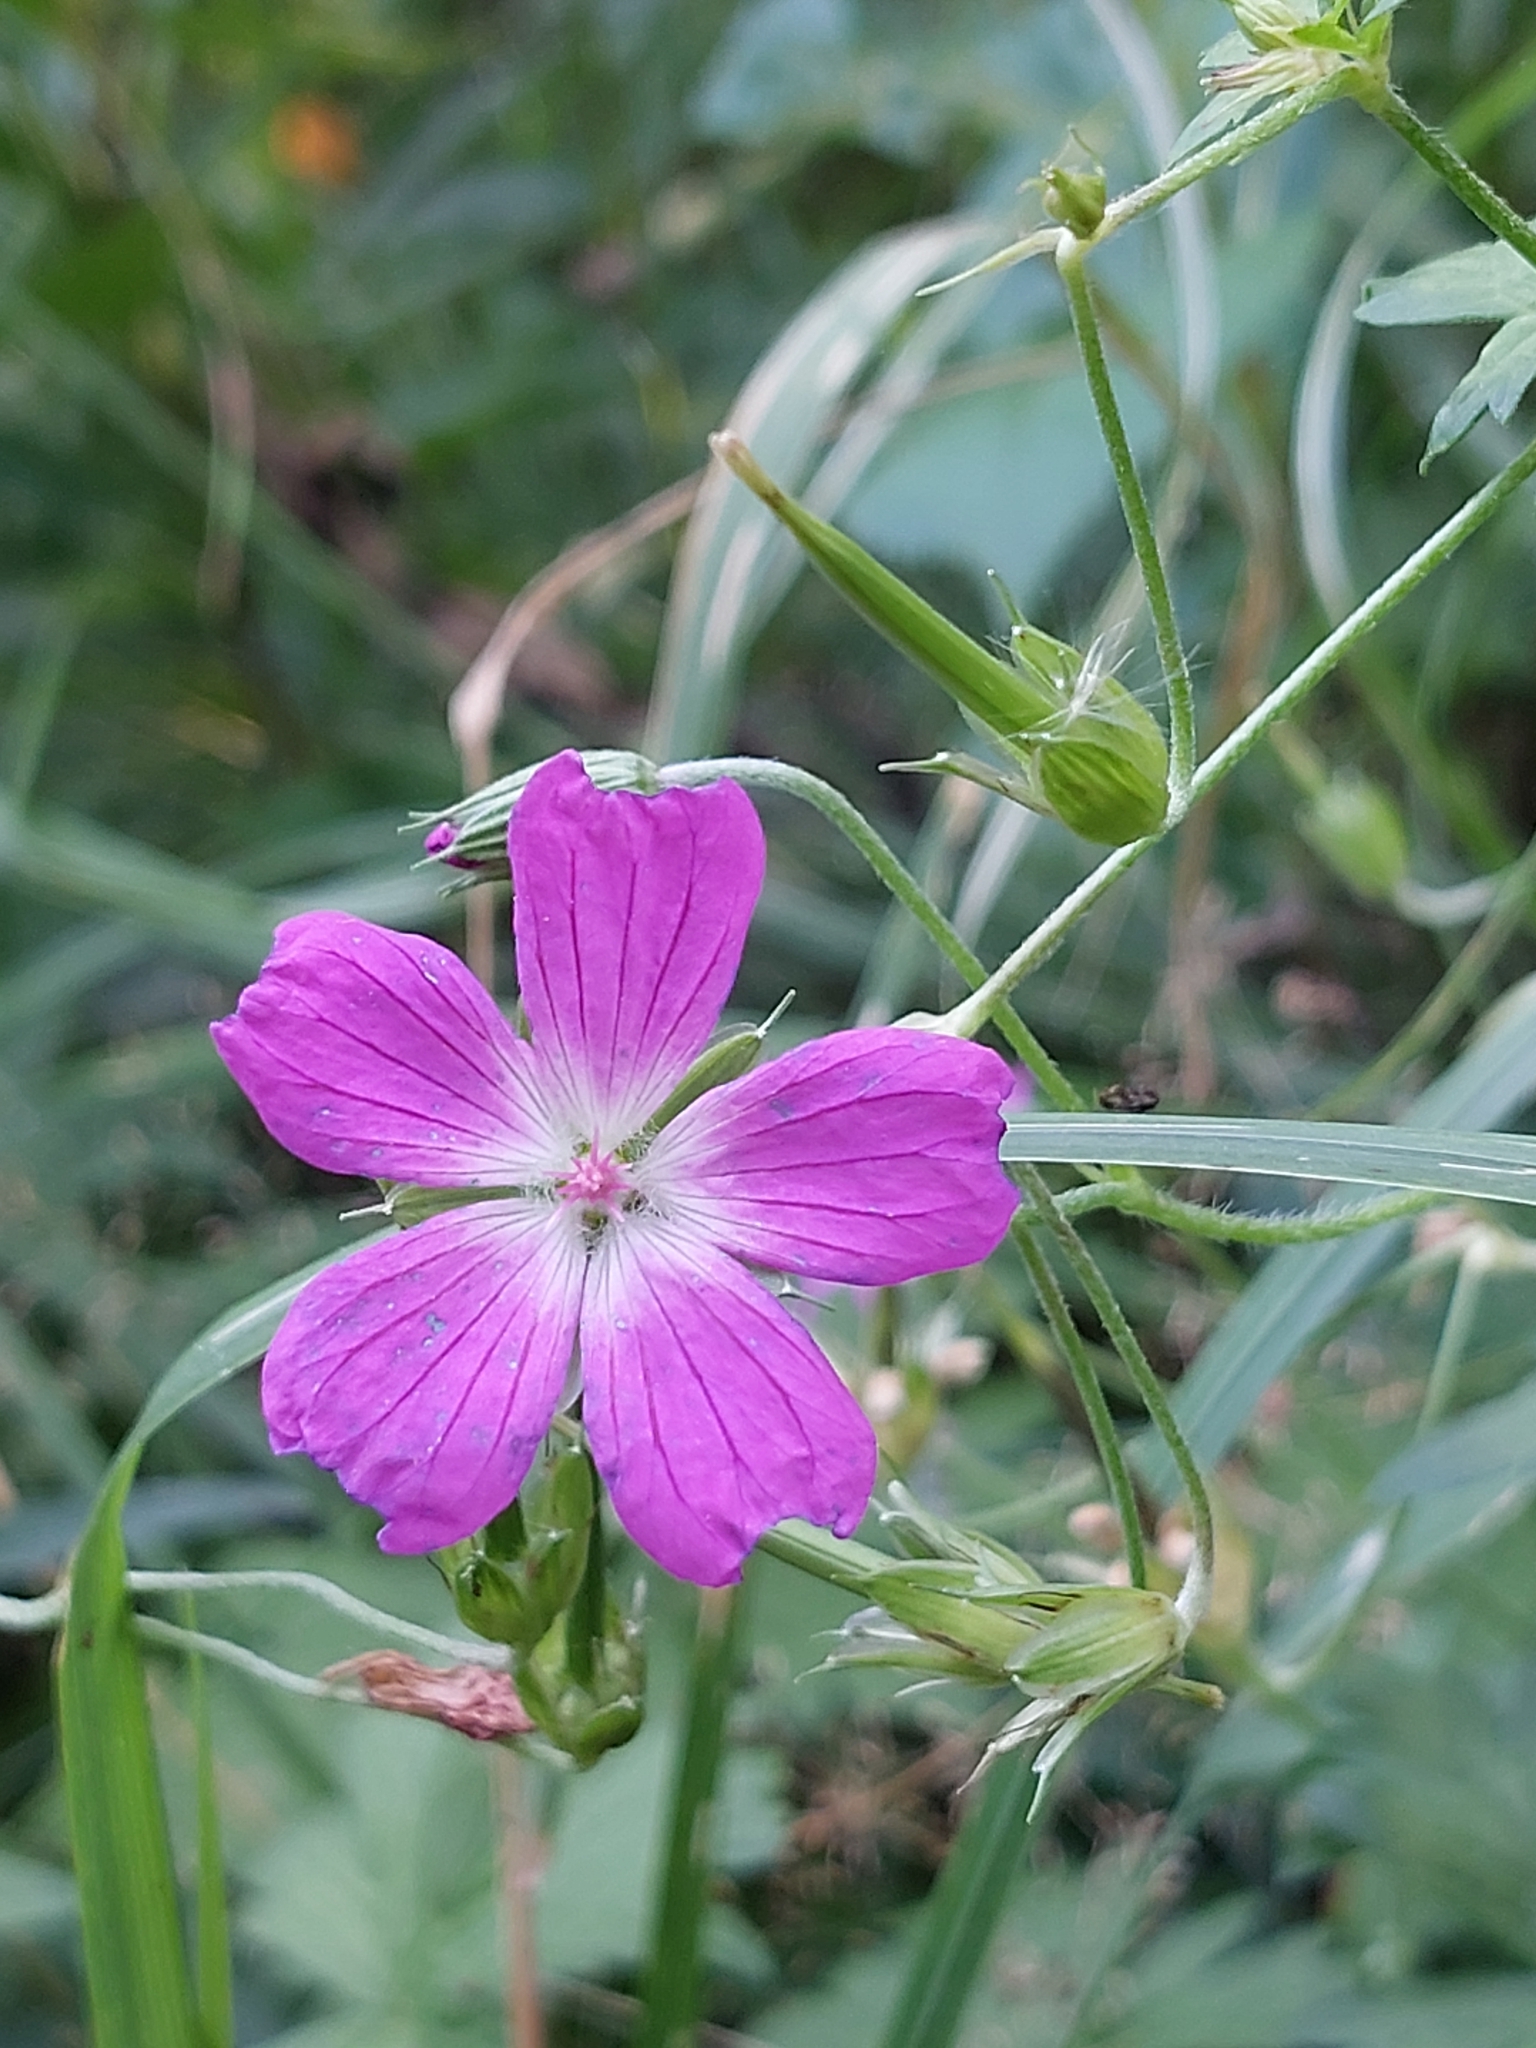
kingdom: Plantae
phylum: Tracheophyta
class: Magnoliopsida
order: Geraniales
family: Geraniaceae
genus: Geranium
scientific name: Geranium palustre
